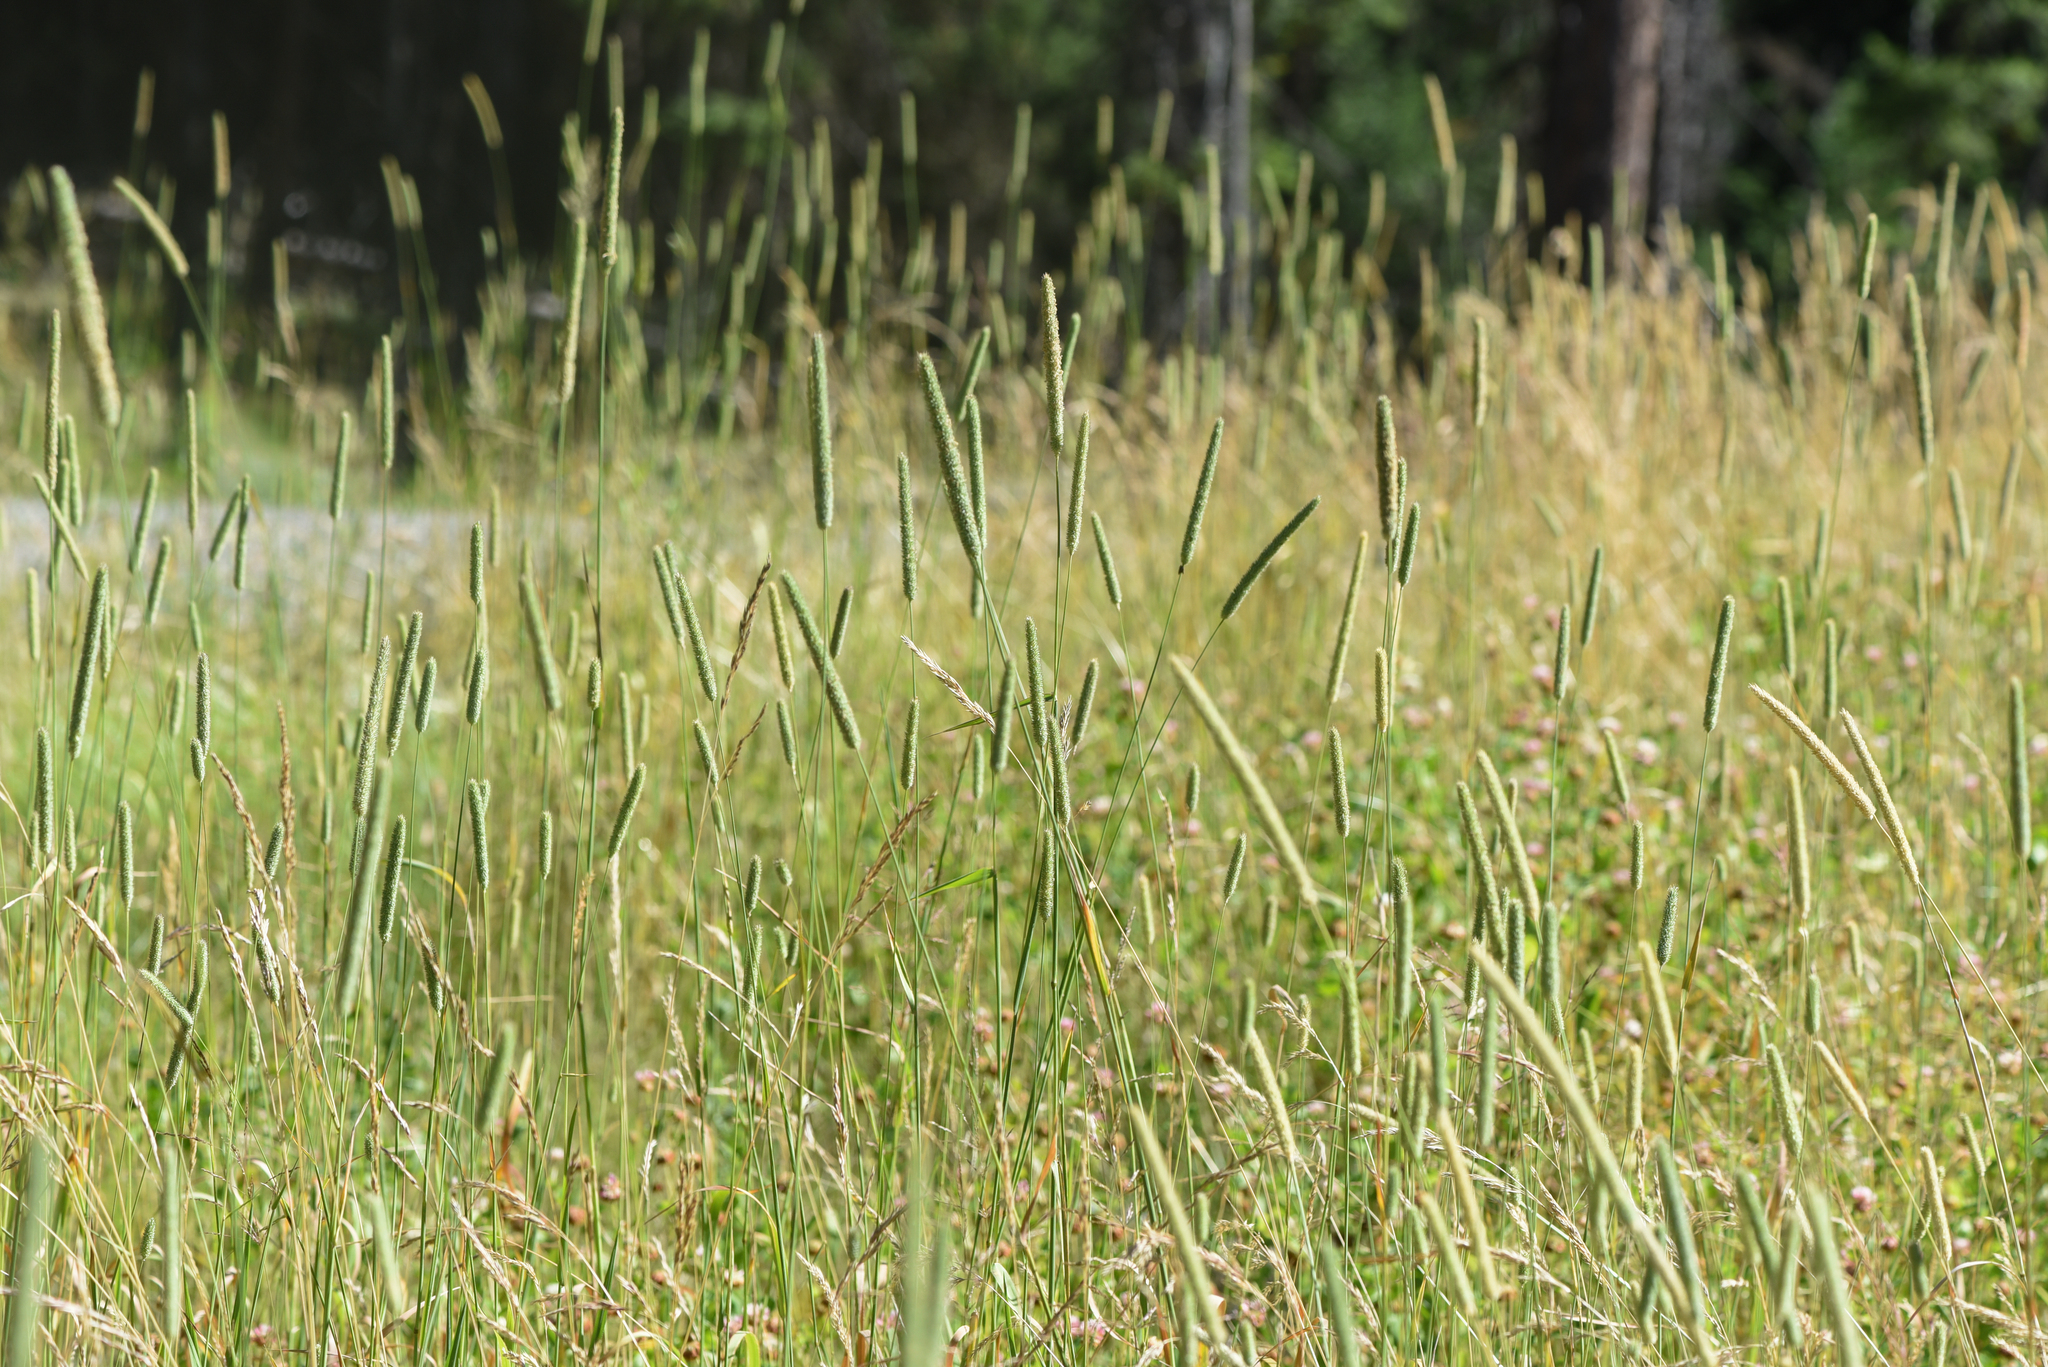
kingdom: Plantae
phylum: Tracheophyta
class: Liliopsida
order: Poales
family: Poaceae
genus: Phleum
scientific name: Phleum pratense
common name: Timothy grass
